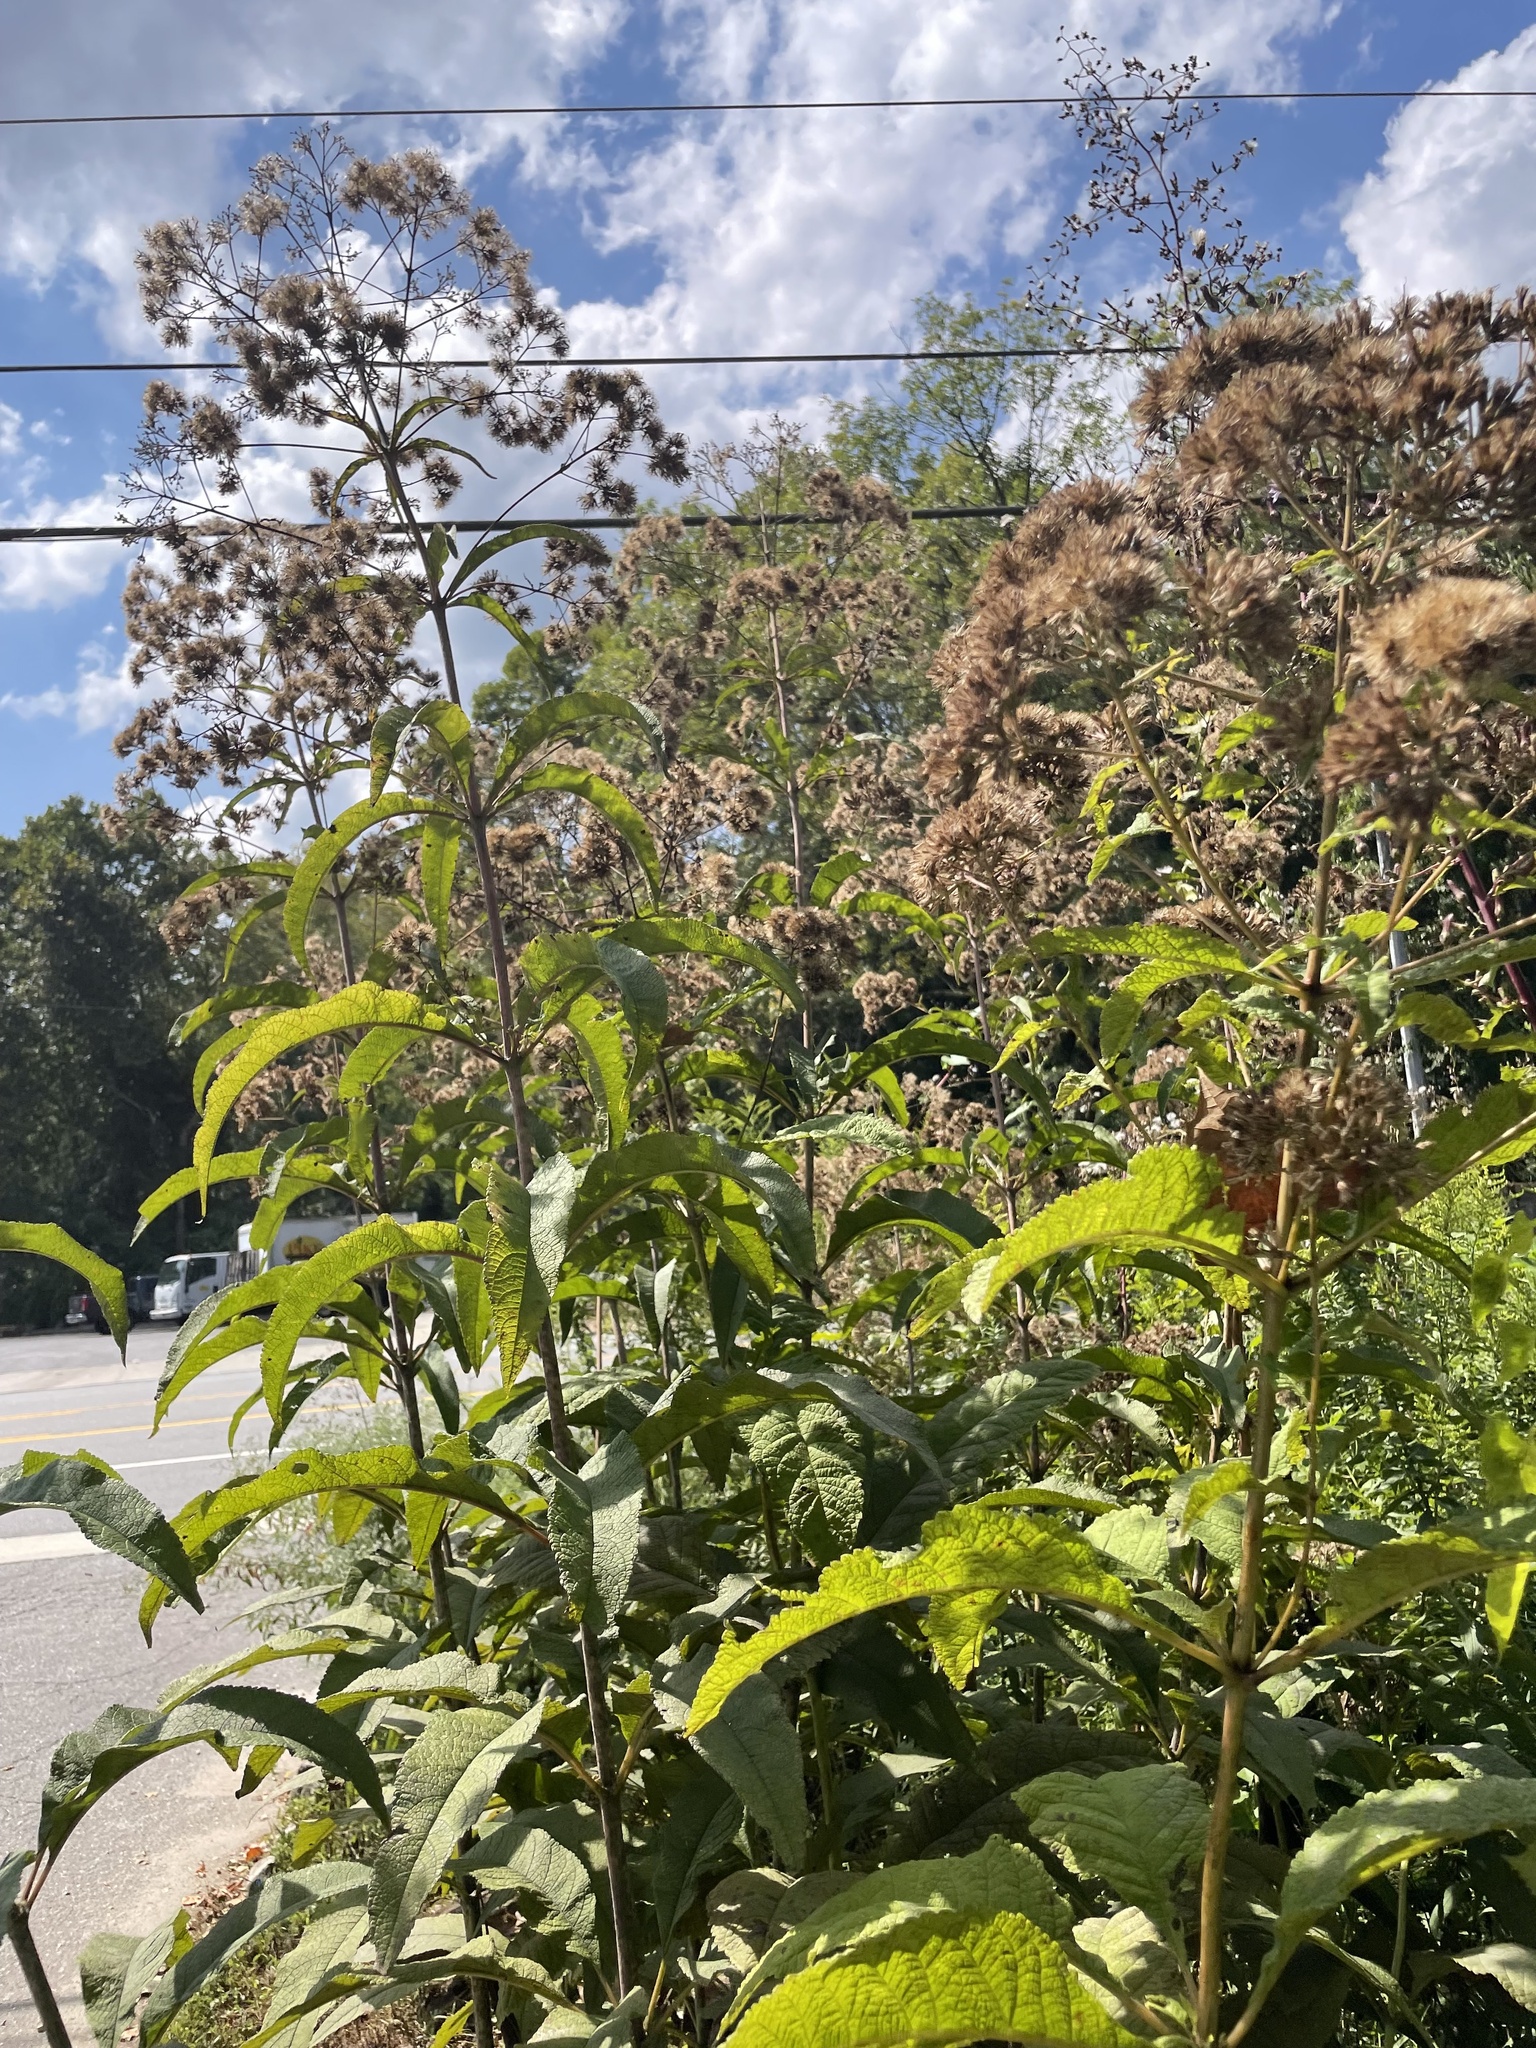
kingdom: Plantae
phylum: Tracheophyta
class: Magnoliopsida
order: Asterales
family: Asteraceae
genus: Eutrochium
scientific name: Eutrochium fistulosum
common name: Trumpetweed
